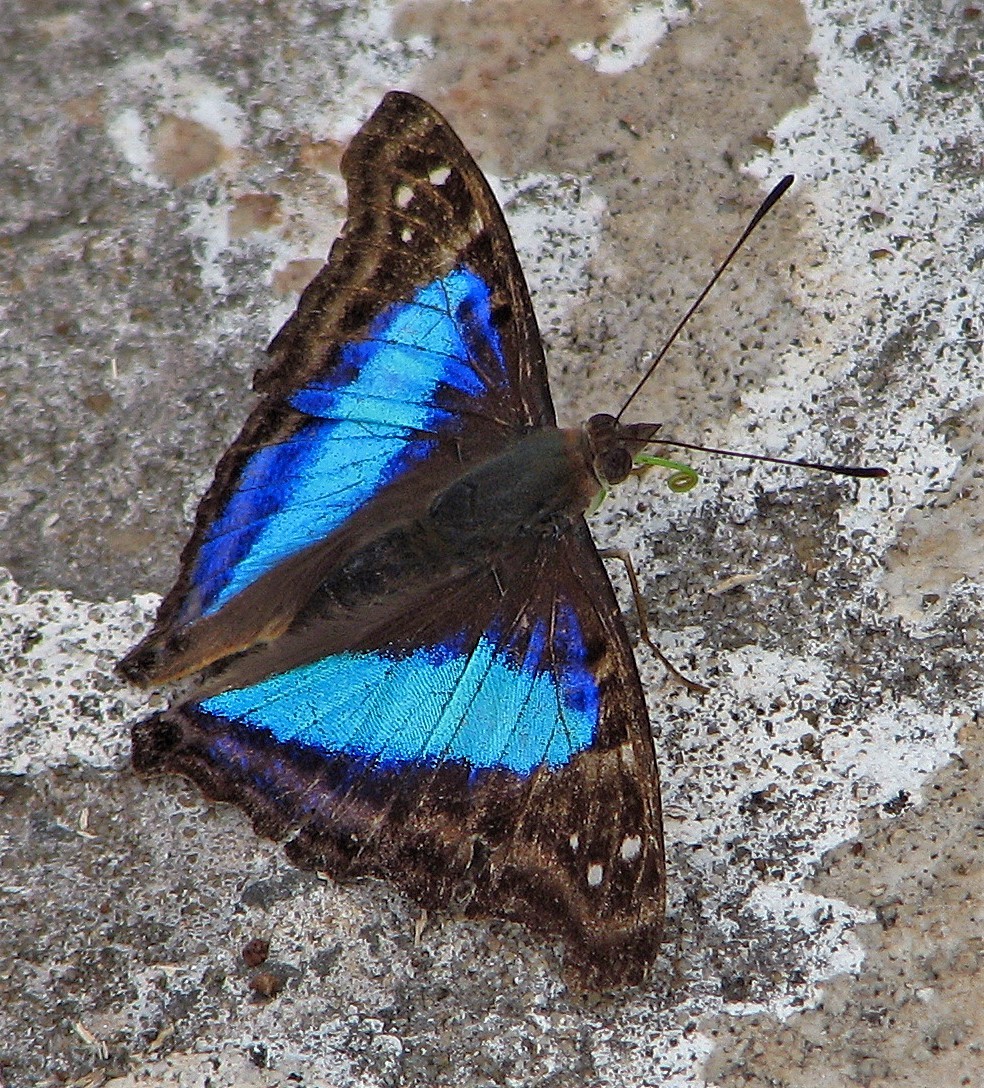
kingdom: Animalia
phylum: Arthropoda
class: Insecta
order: Lepidoptera
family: Nymphalidae
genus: Doxocopa
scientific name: Doxocopa laurentia
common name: Turquoise emperor
